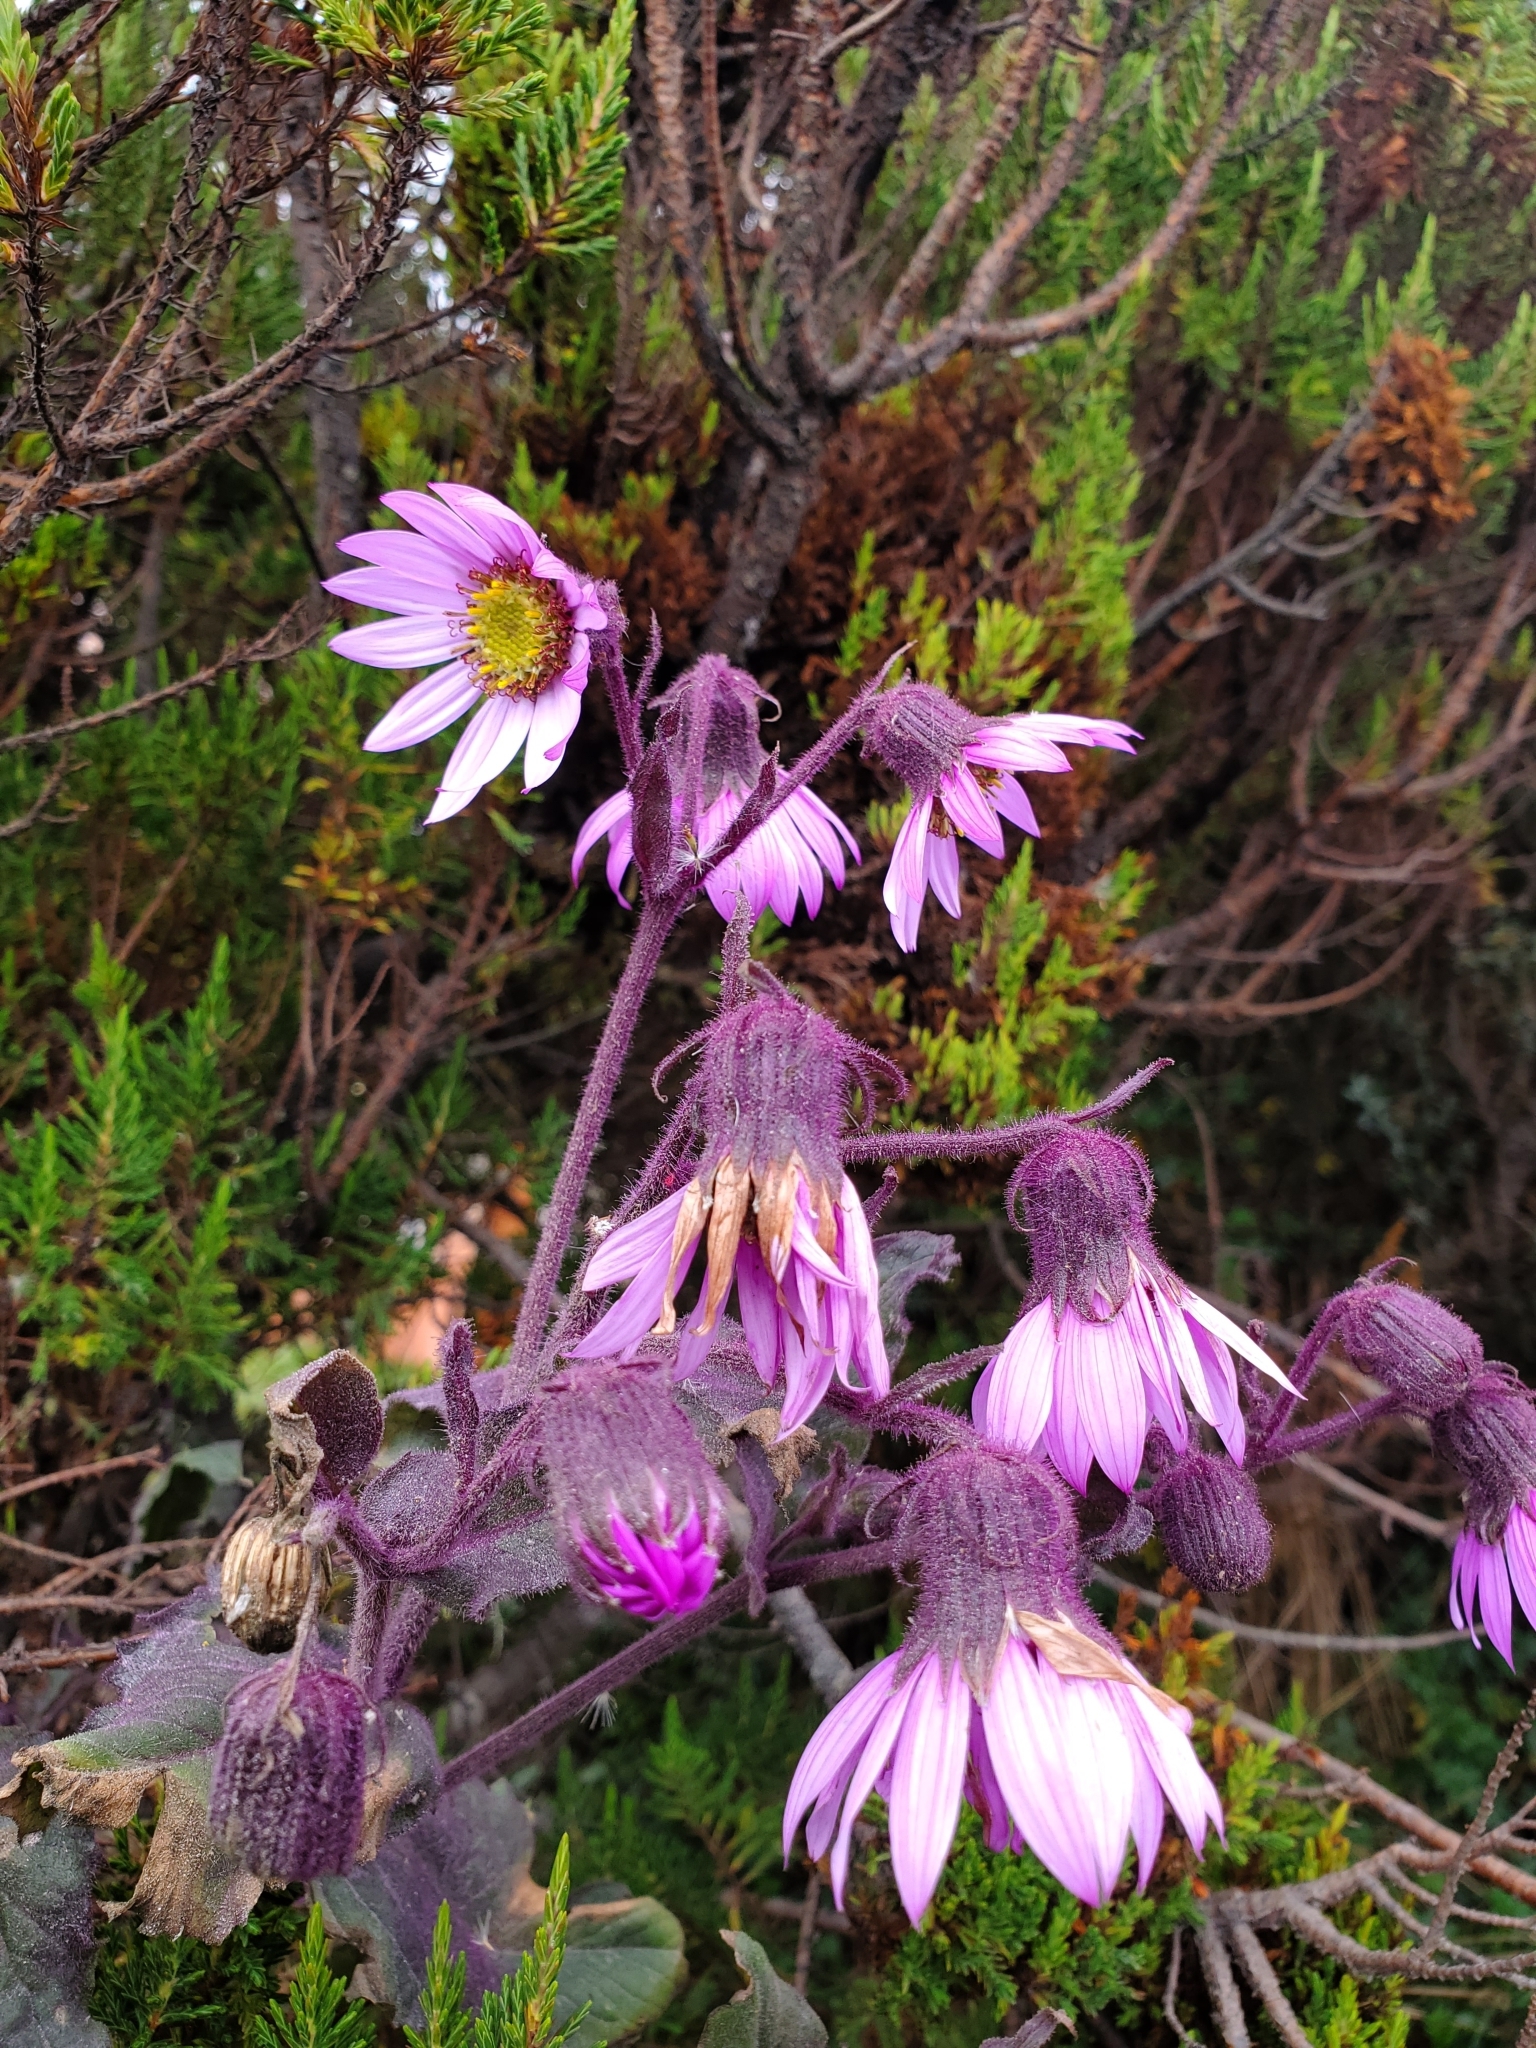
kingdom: Plantae
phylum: Tracheophyta
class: Magnoliopsida
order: Asterales
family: Asteraceae
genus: Senecio
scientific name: Senecio formosus
